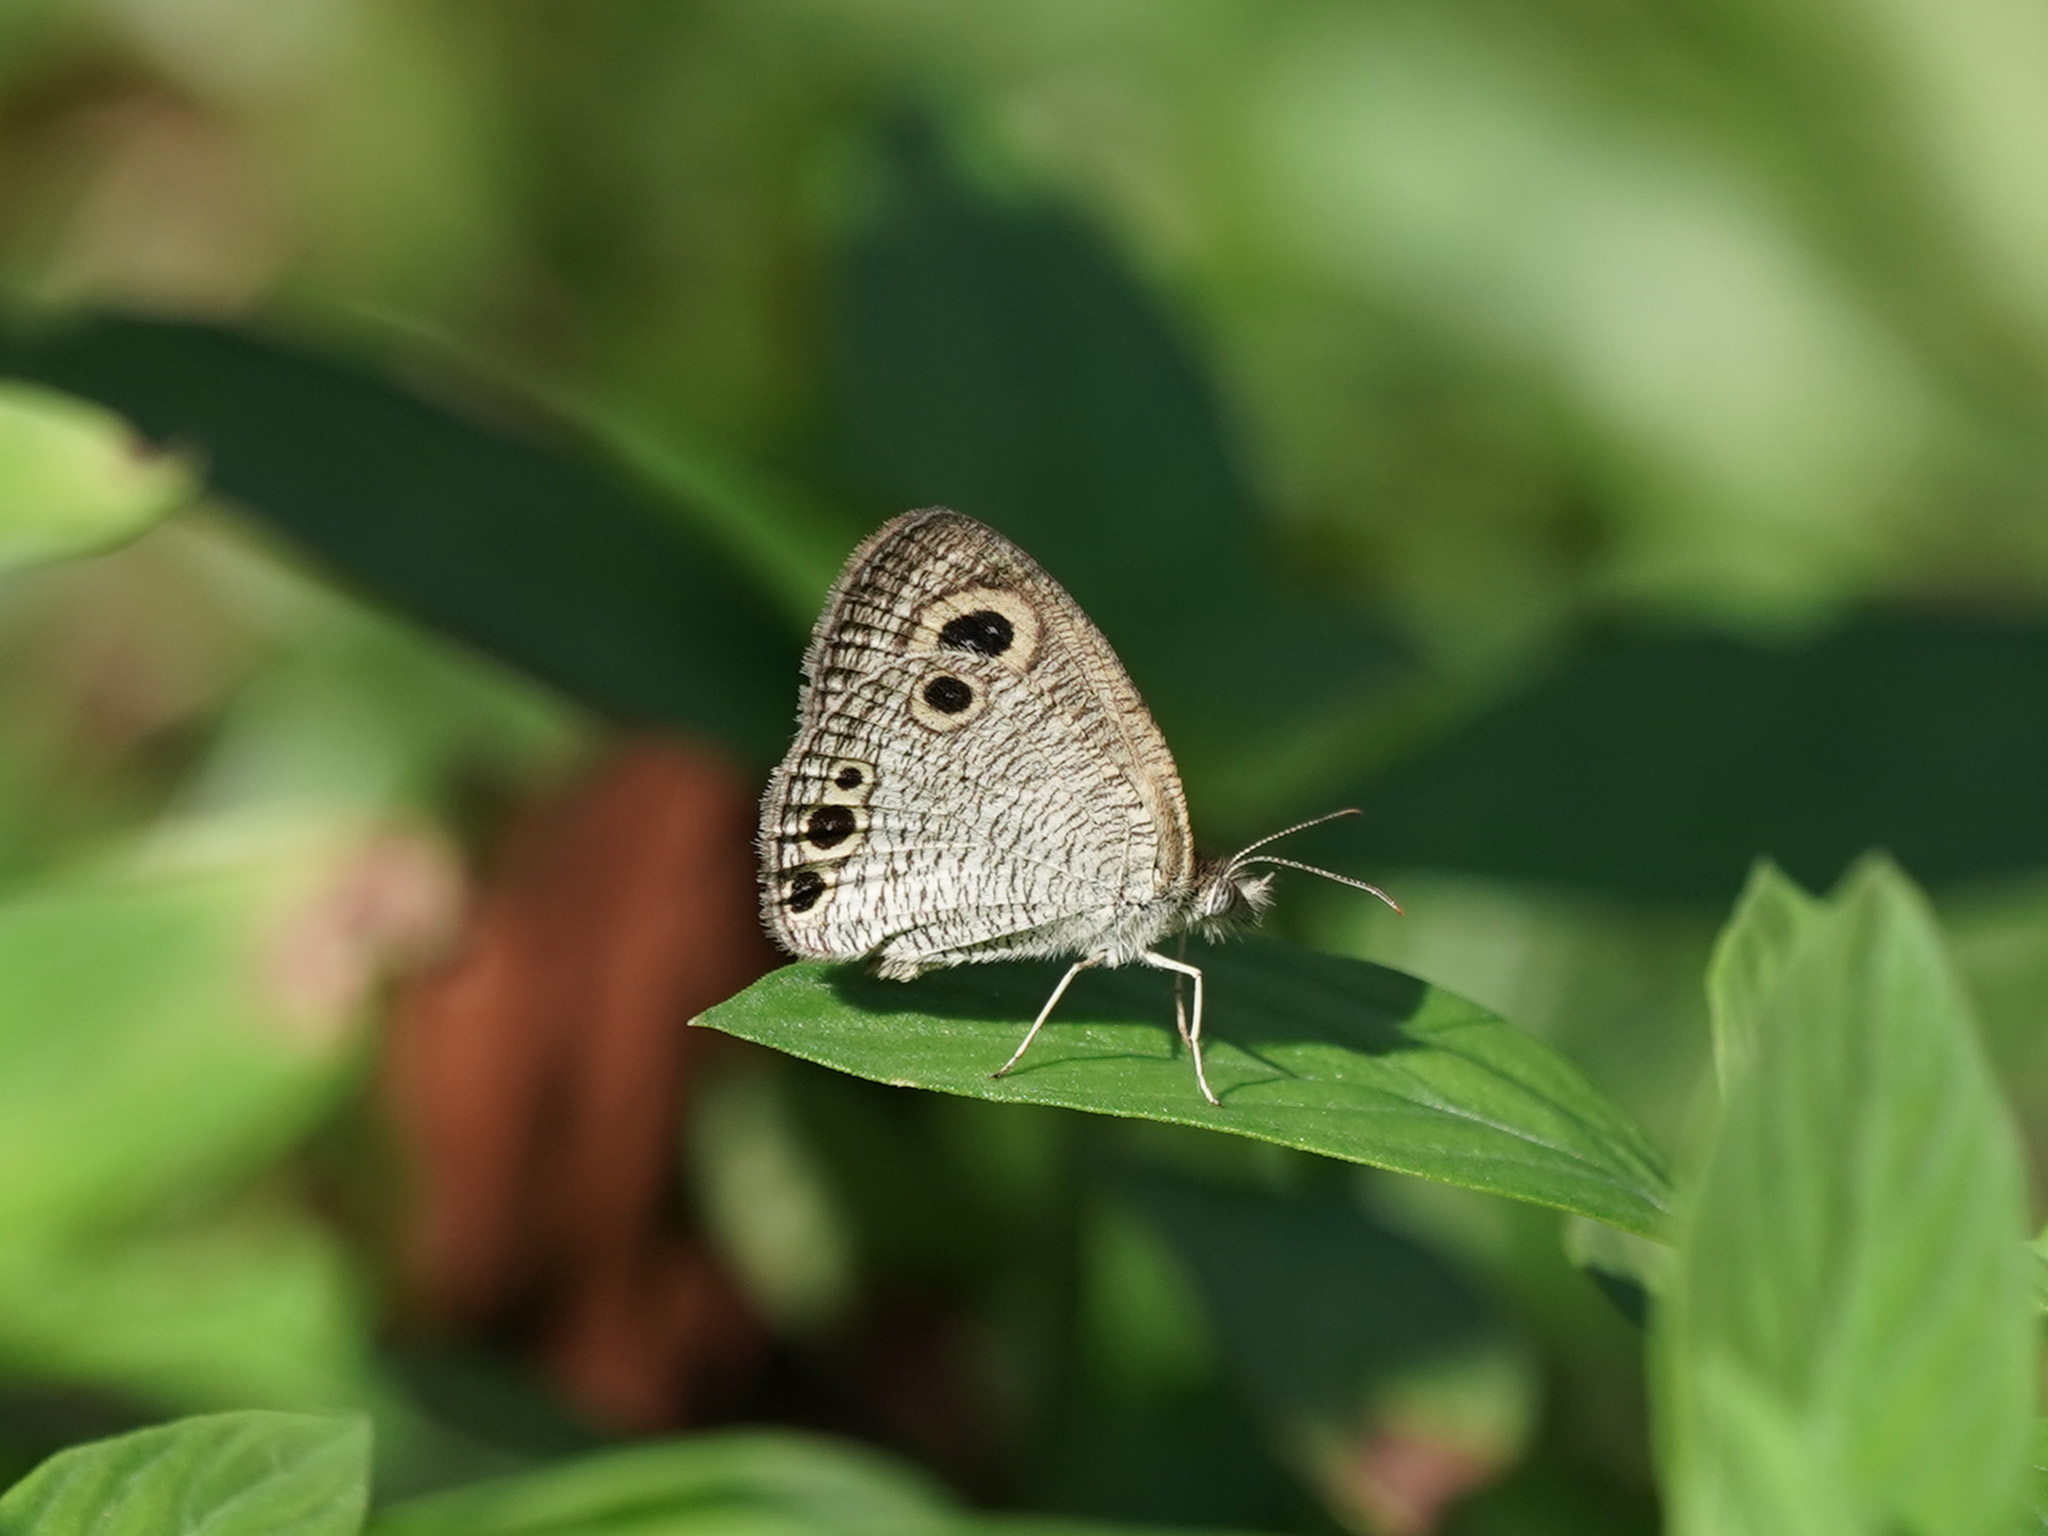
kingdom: Animalia
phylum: Arthropoda
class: Insecta
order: Lepidoptera
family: Nymphalidae
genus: Ypthima
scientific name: Ypthima huebneri
